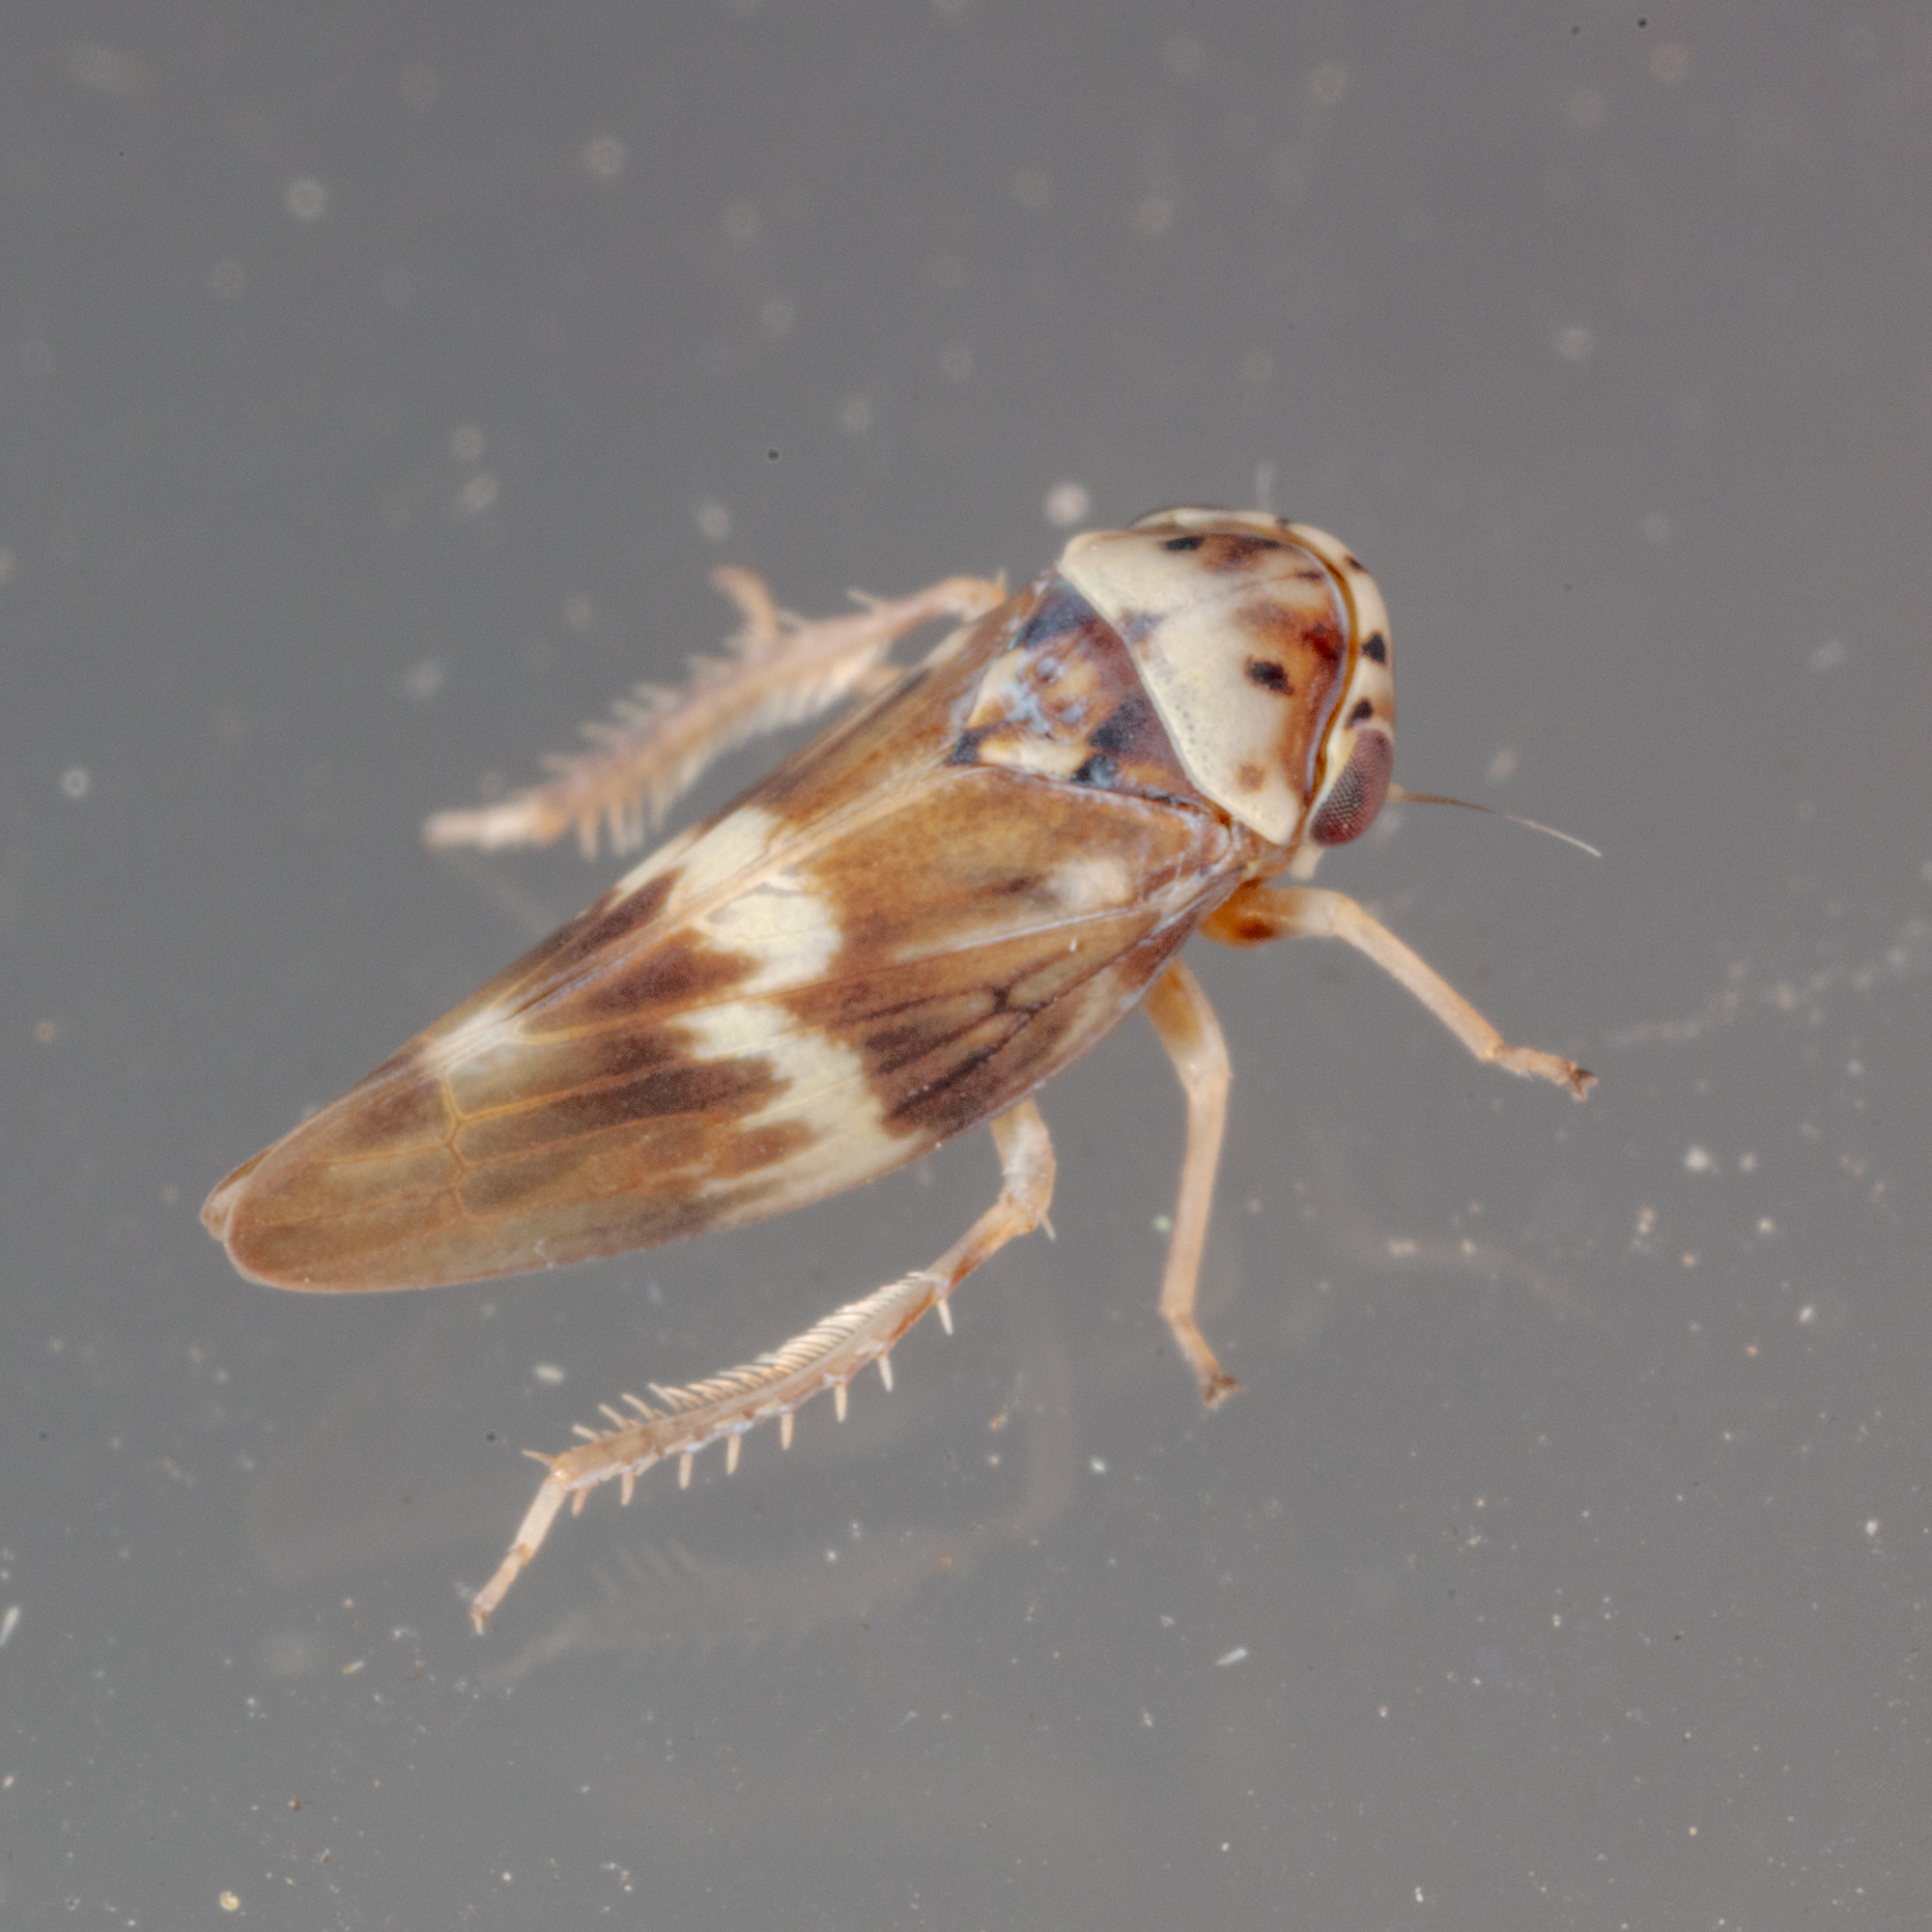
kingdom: Animalia
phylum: Arthropoda
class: Insecta
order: Hemiptera
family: Cicadellidae
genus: Agalliopsis
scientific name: Agalliopsis cervina
